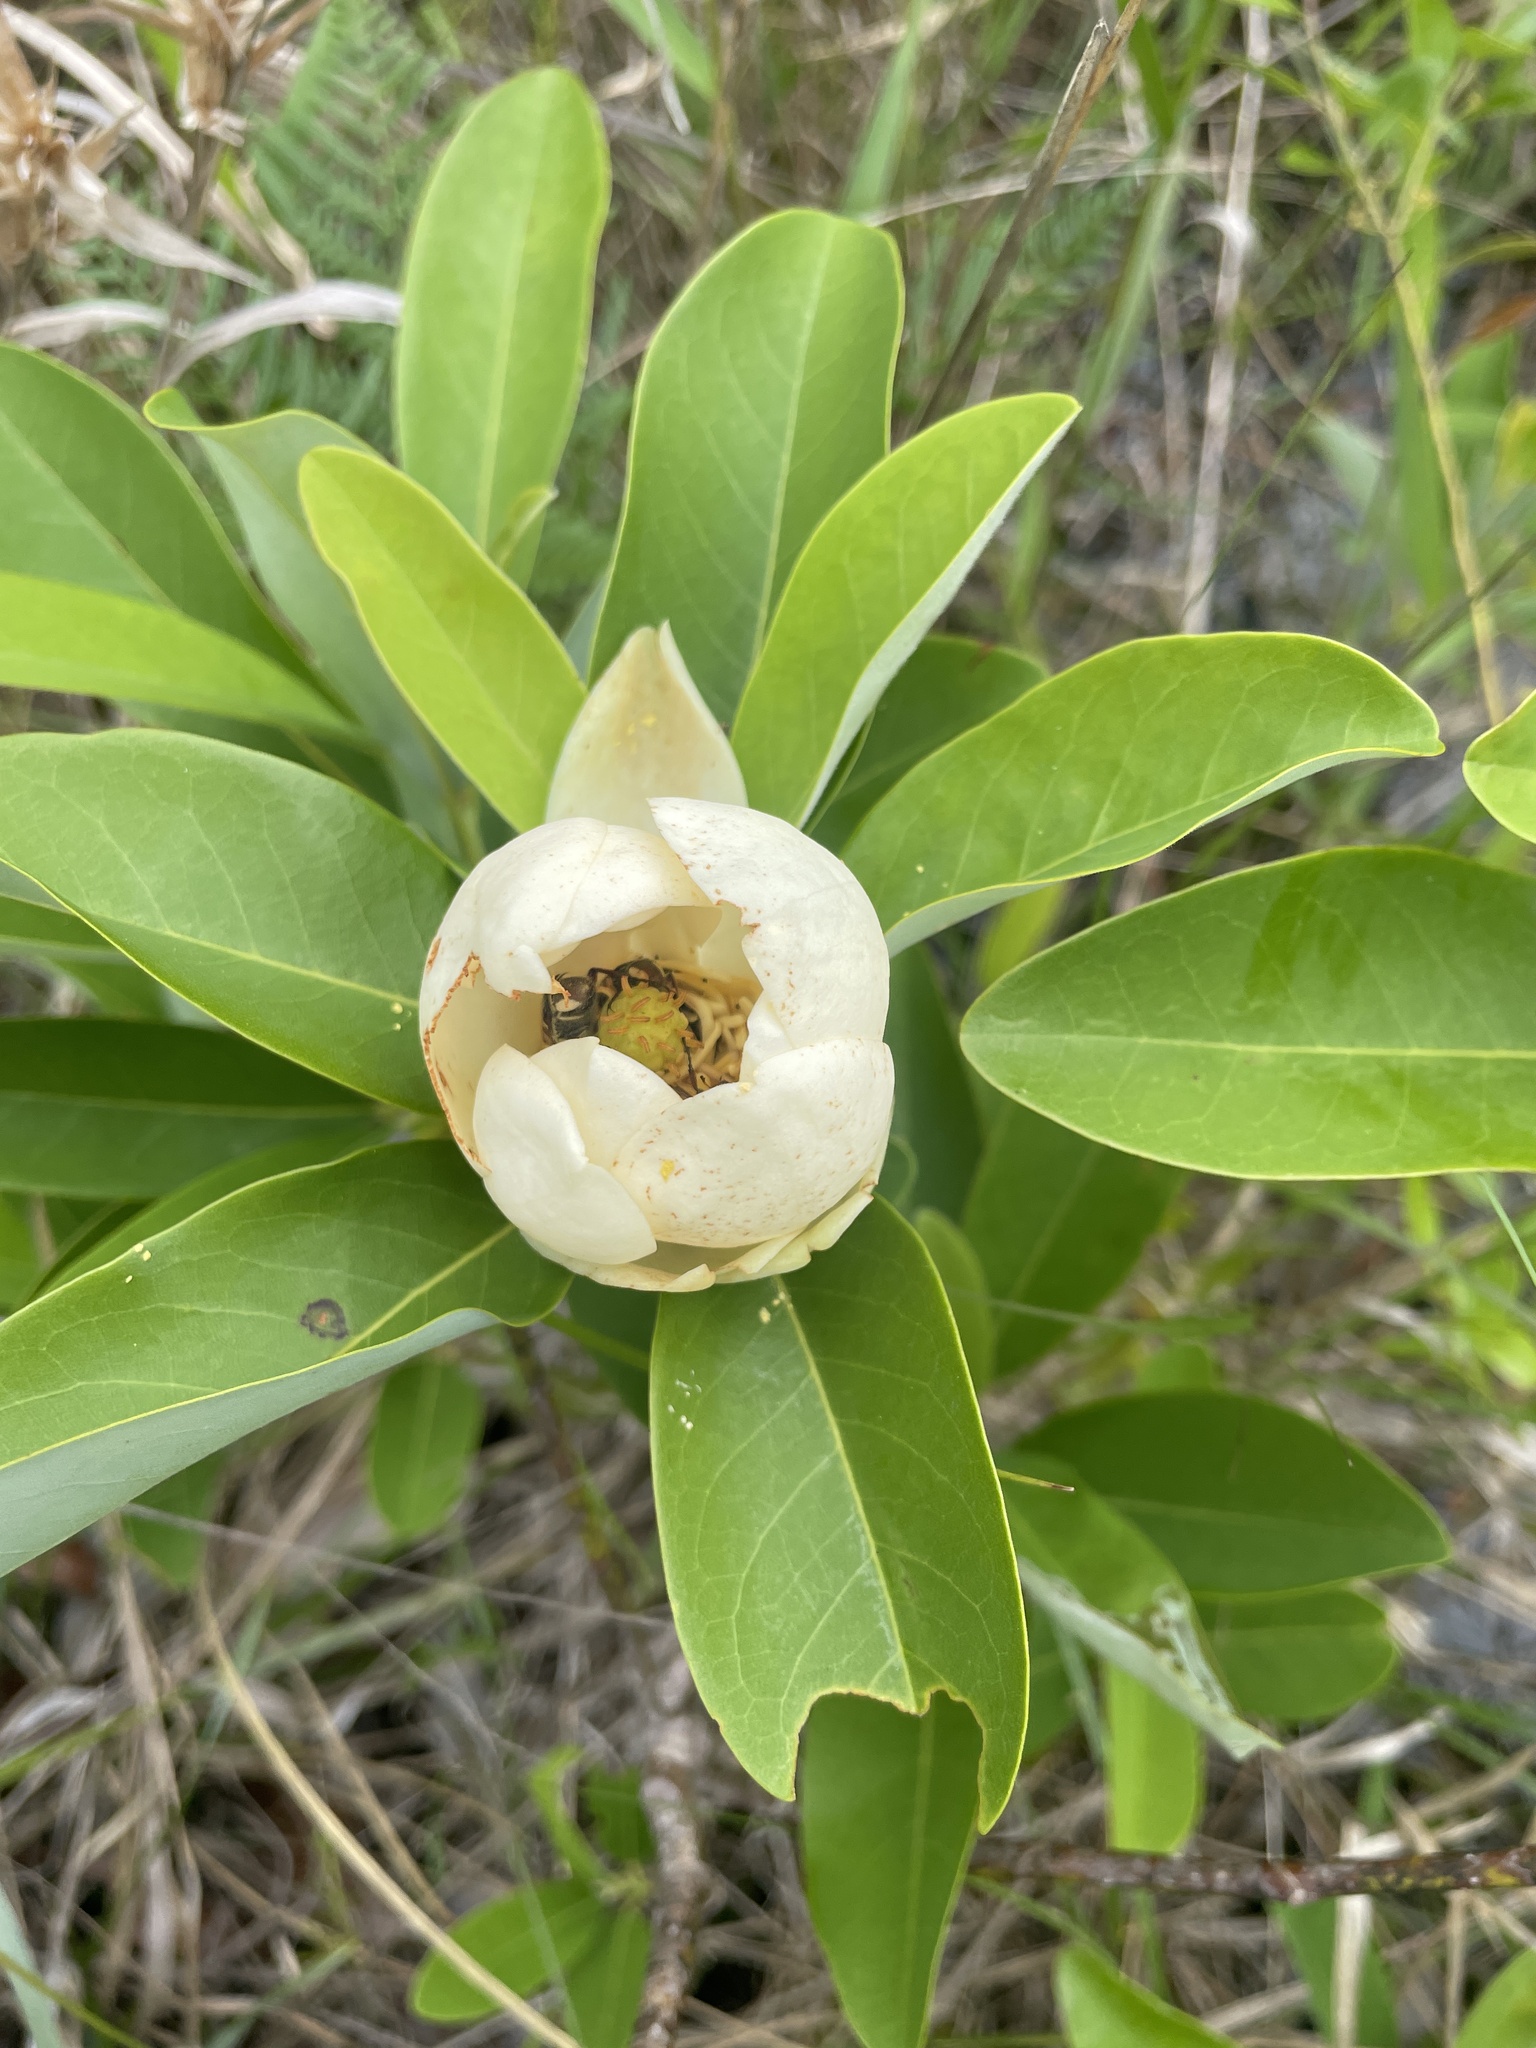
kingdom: Plantae
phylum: Tracheophyta
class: Magnoliopsida
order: Magnoliales
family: Magnoliaceae
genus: Magnolia
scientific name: Magnolia virginiana
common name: Swamp bay
